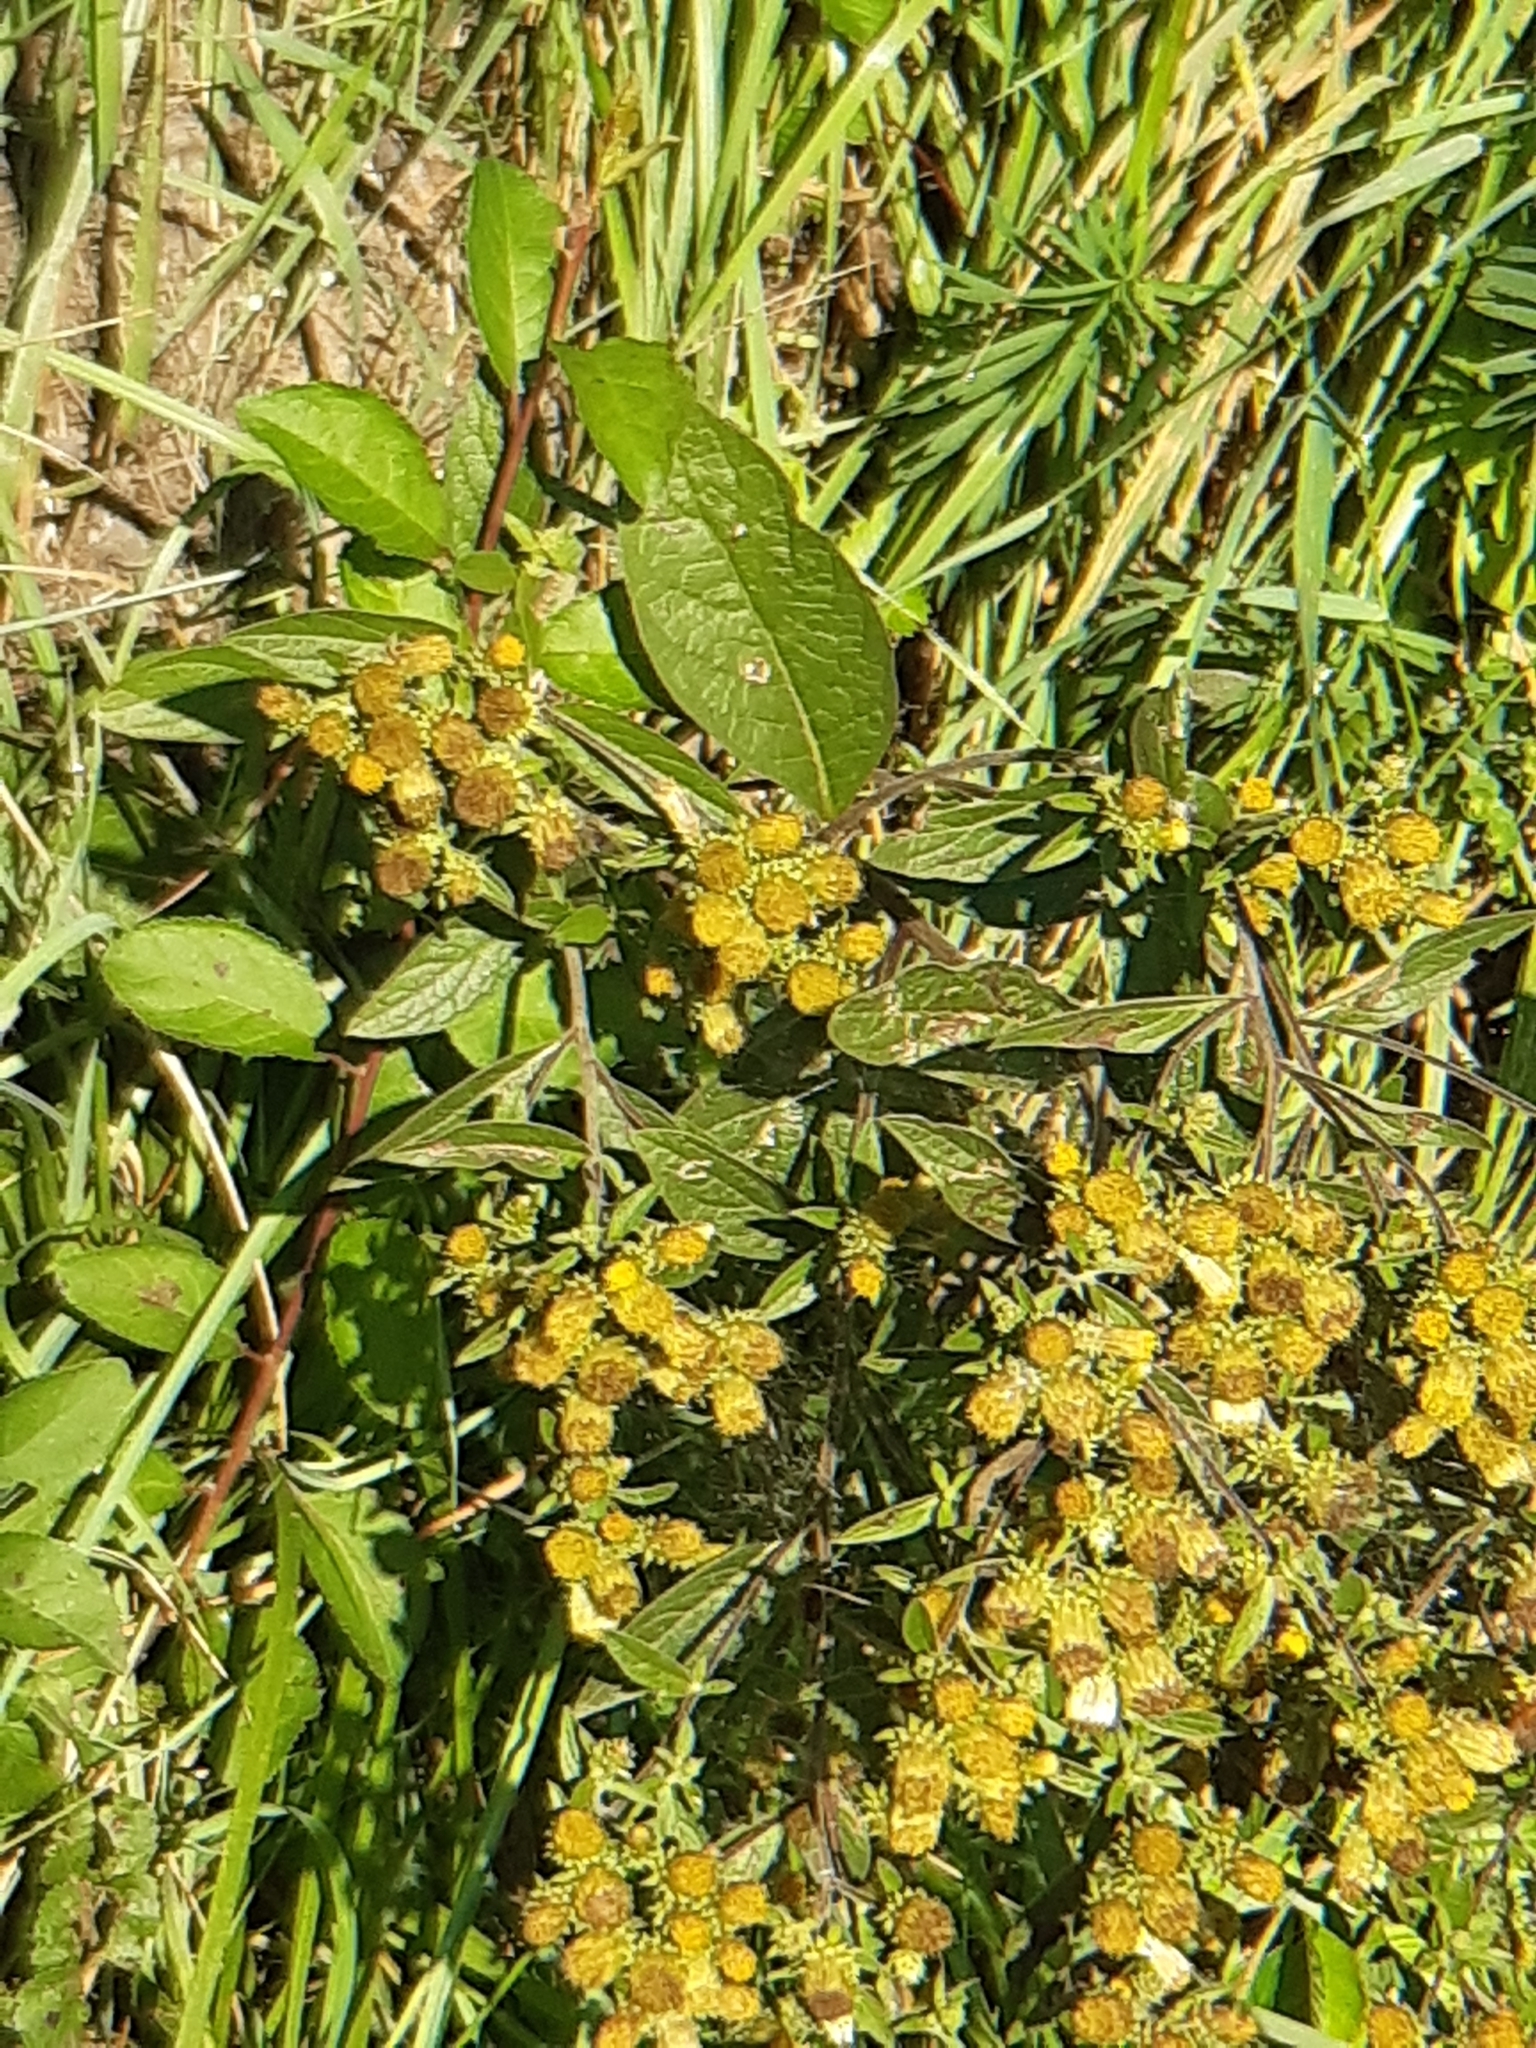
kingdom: Plantae
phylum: Tracheophyta
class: Magnoliopsida
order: Asterales
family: Asteraceae
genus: Pentanema
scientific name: Pentanema squarrosum
